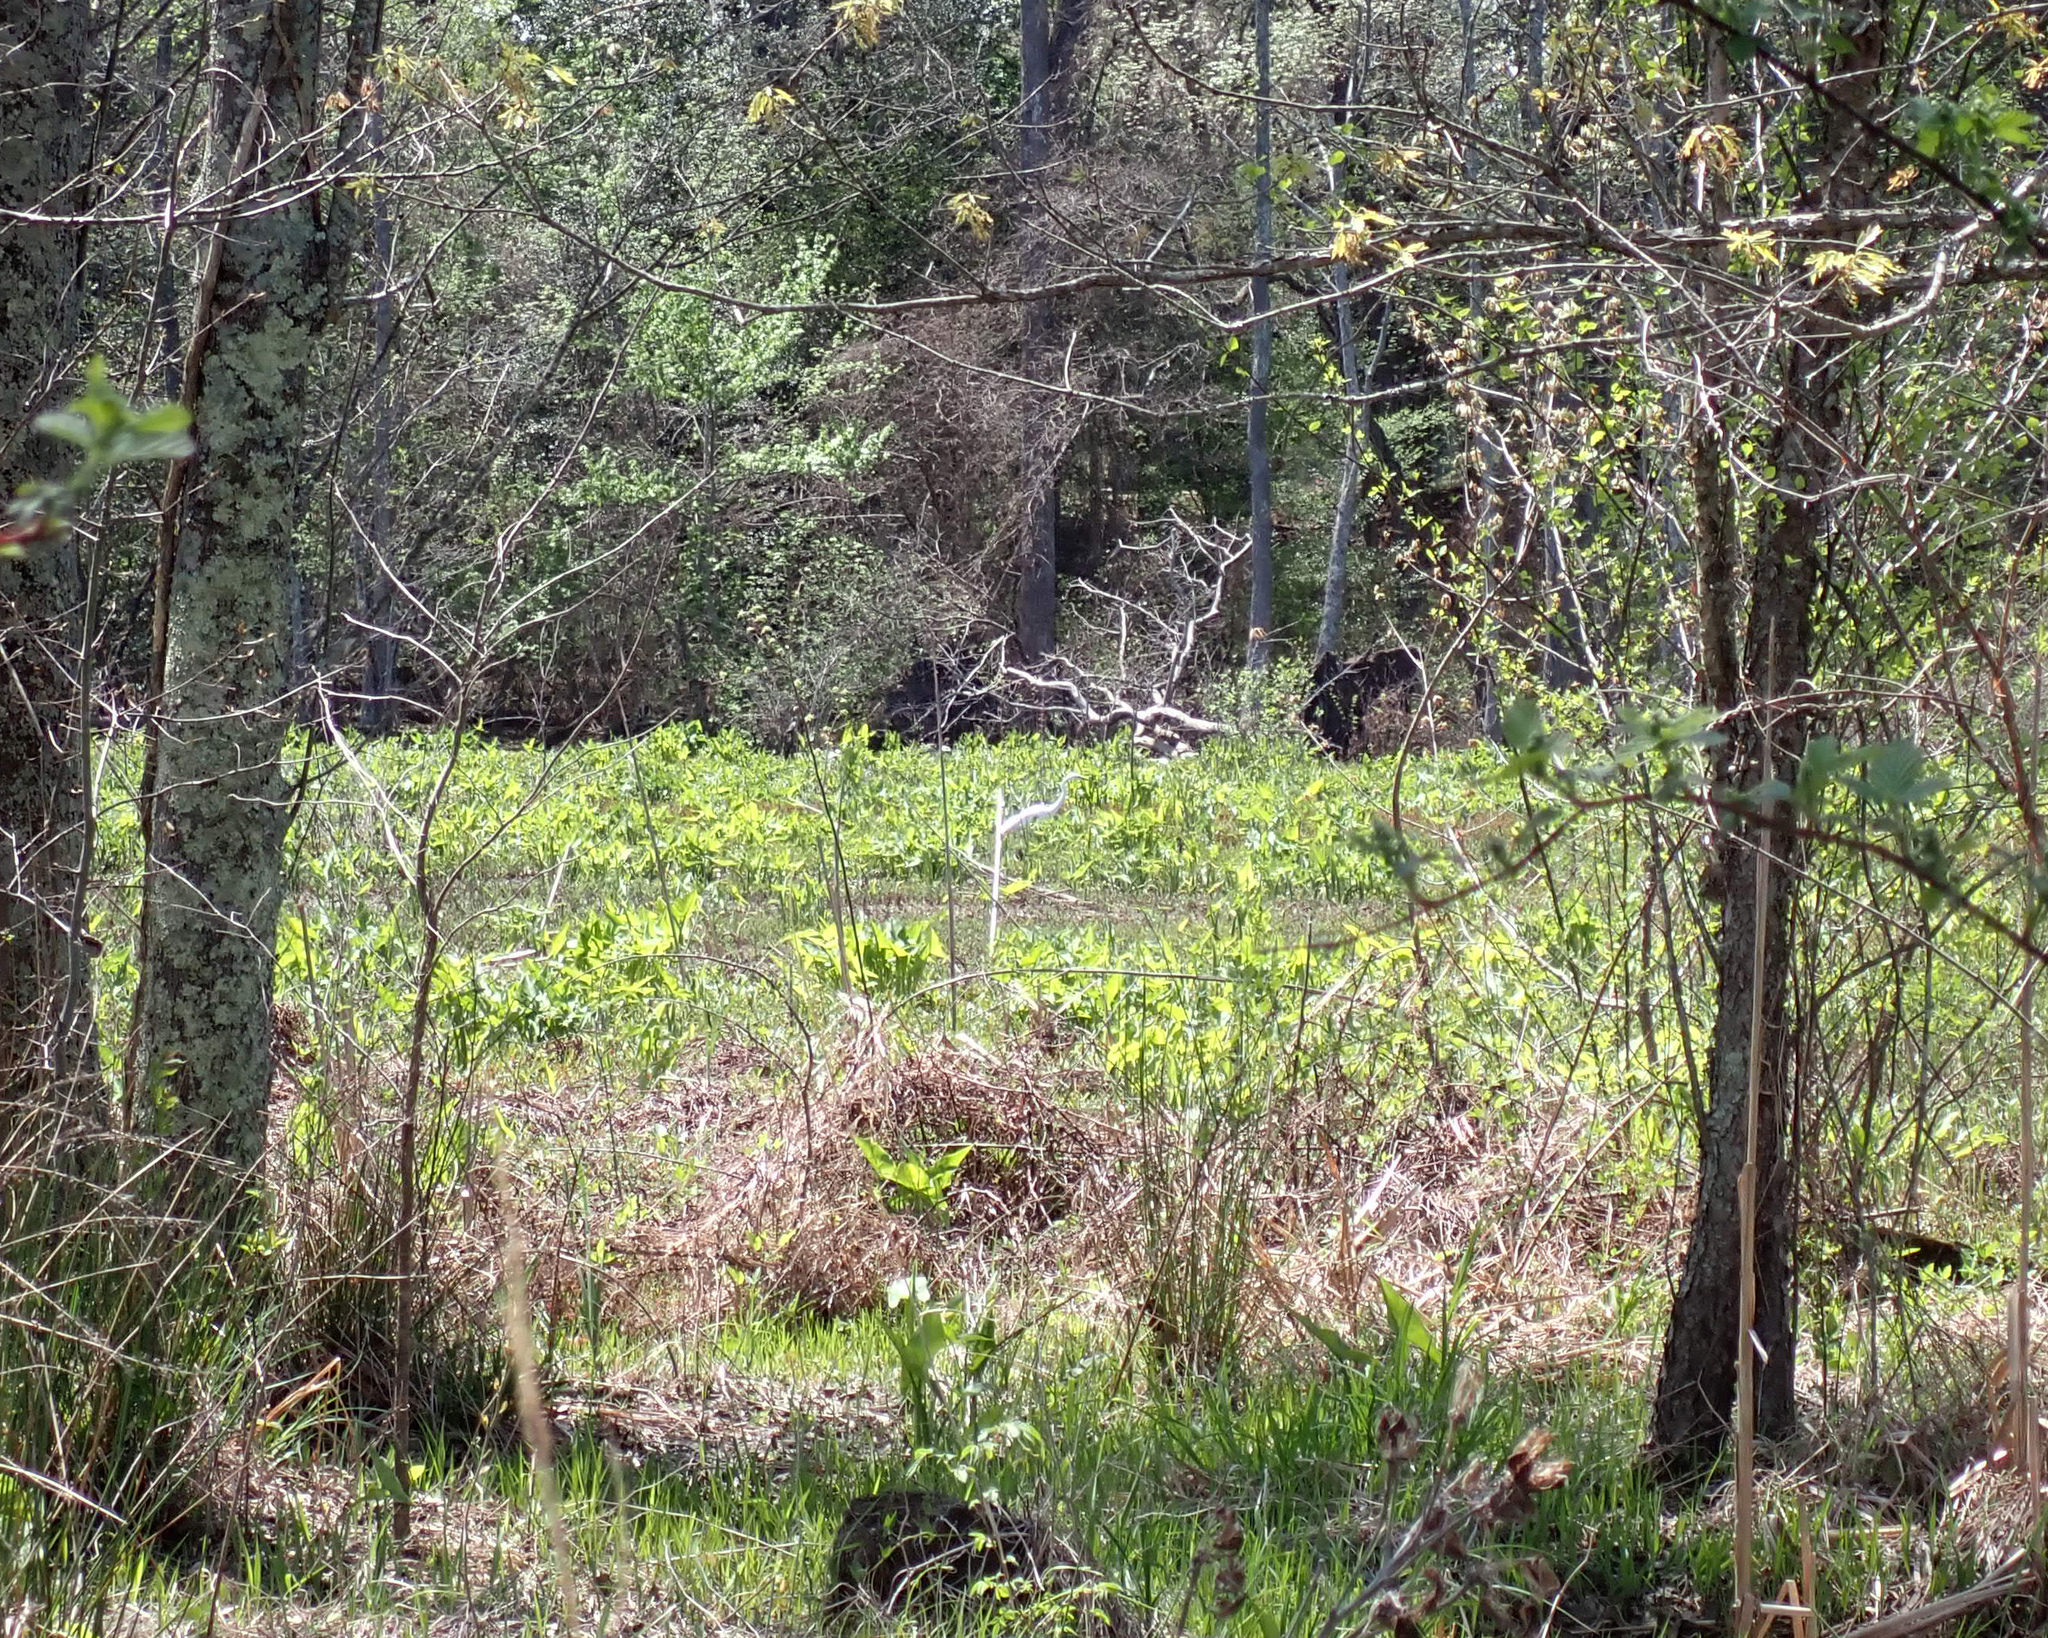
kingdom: Animalia
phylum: Chordata
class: Aves
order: Pelecaniformes
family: Ardeidae
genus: Ardea
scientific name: Ardea alba
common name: Great egret
